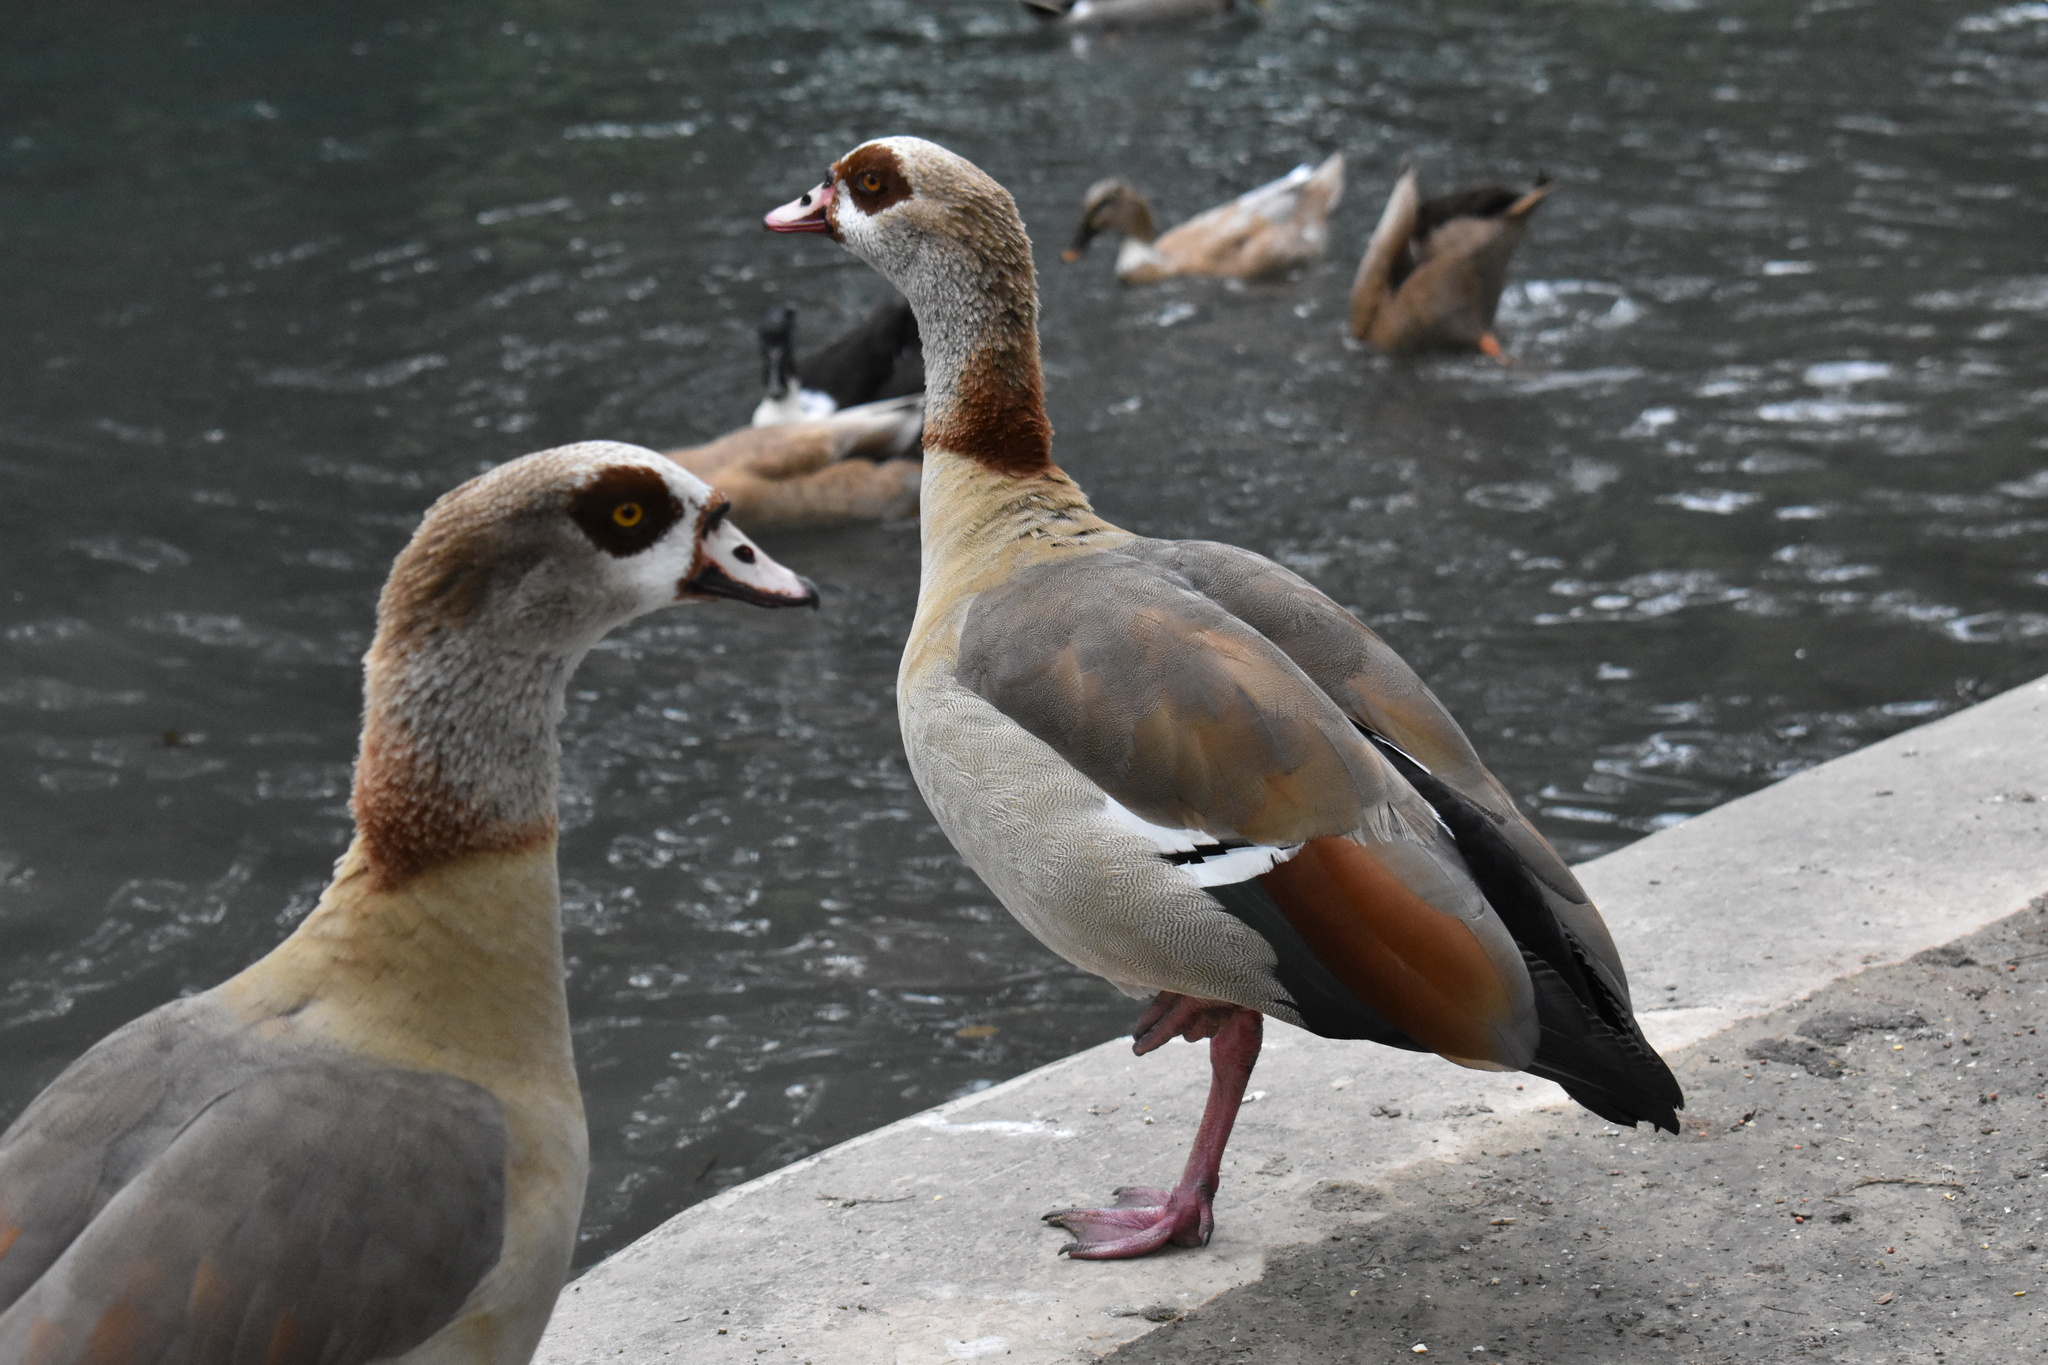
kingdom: Animalia
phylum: Chordata
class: Aves
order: Anseriformes
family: Anatidae
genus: Alopochen
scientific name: Alopochen aegyptiaca
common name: Egyptian goose
